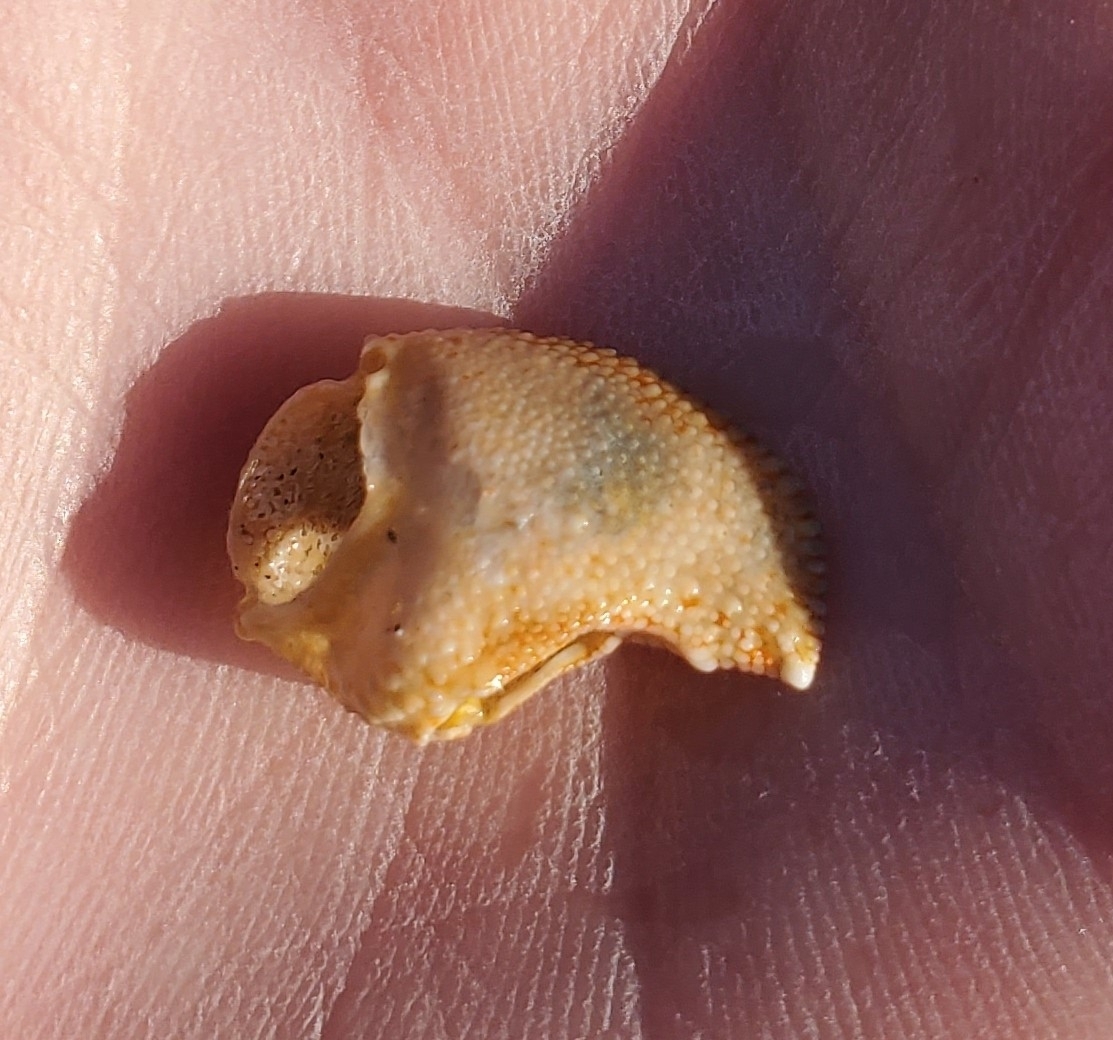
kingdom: Animalia
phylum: Arthropoda
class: Malacostraca
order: Decapoda
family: Paguridae
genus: Pagurus
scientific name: Pagurus pollicaris
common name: Flatclaw hermit
